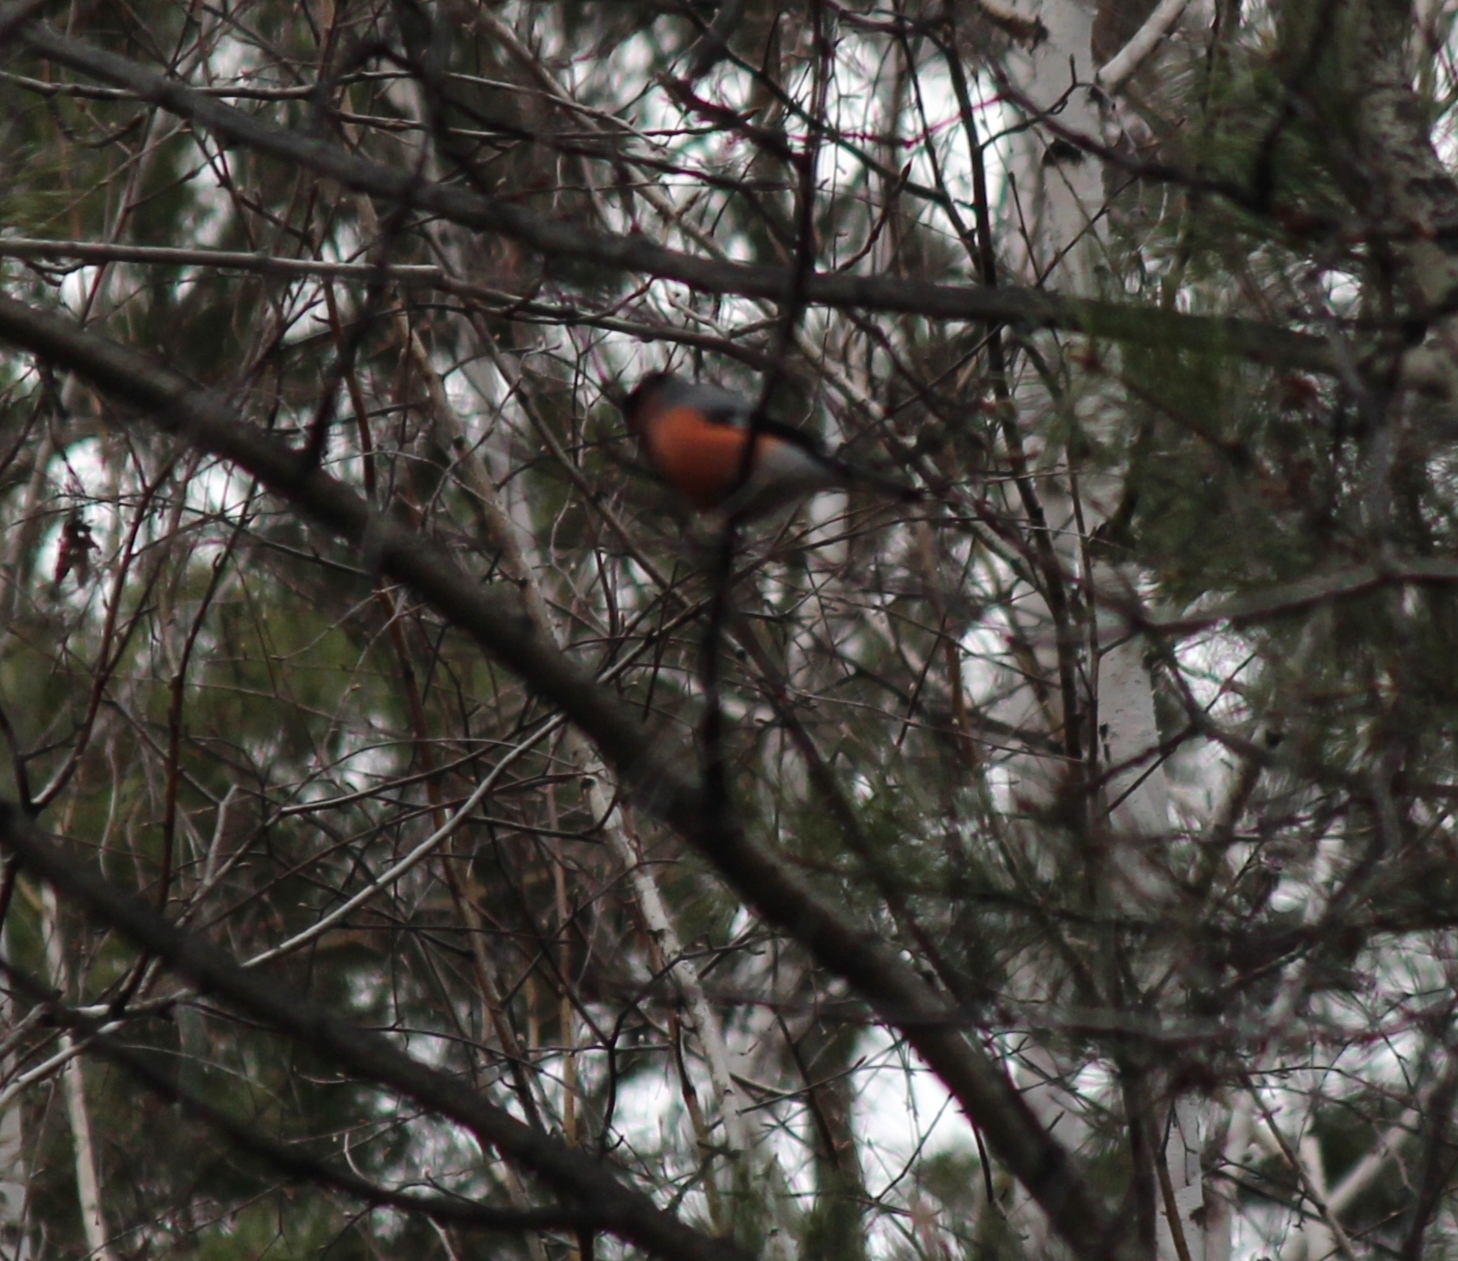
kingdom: Animalia
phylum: Chordata
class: Aves
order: Passeriformes
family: Fringillidae
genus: Pyrrhula
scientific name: Pyrrhula pyrrhula
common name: Eurasian bullfinch
